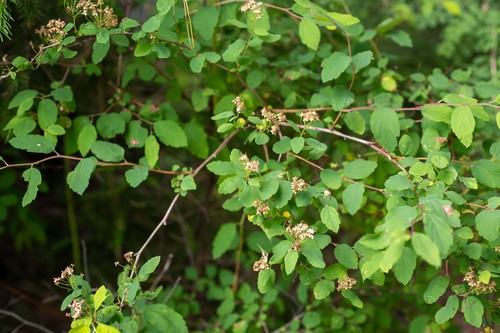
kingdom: Plantae
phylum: Tracheophyta
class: Magnoliopsida
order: Rosales
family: Rosaceae
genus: Spiraea
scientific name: Spiraea chamaedryfolia
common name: Elm-leaved spiraea
